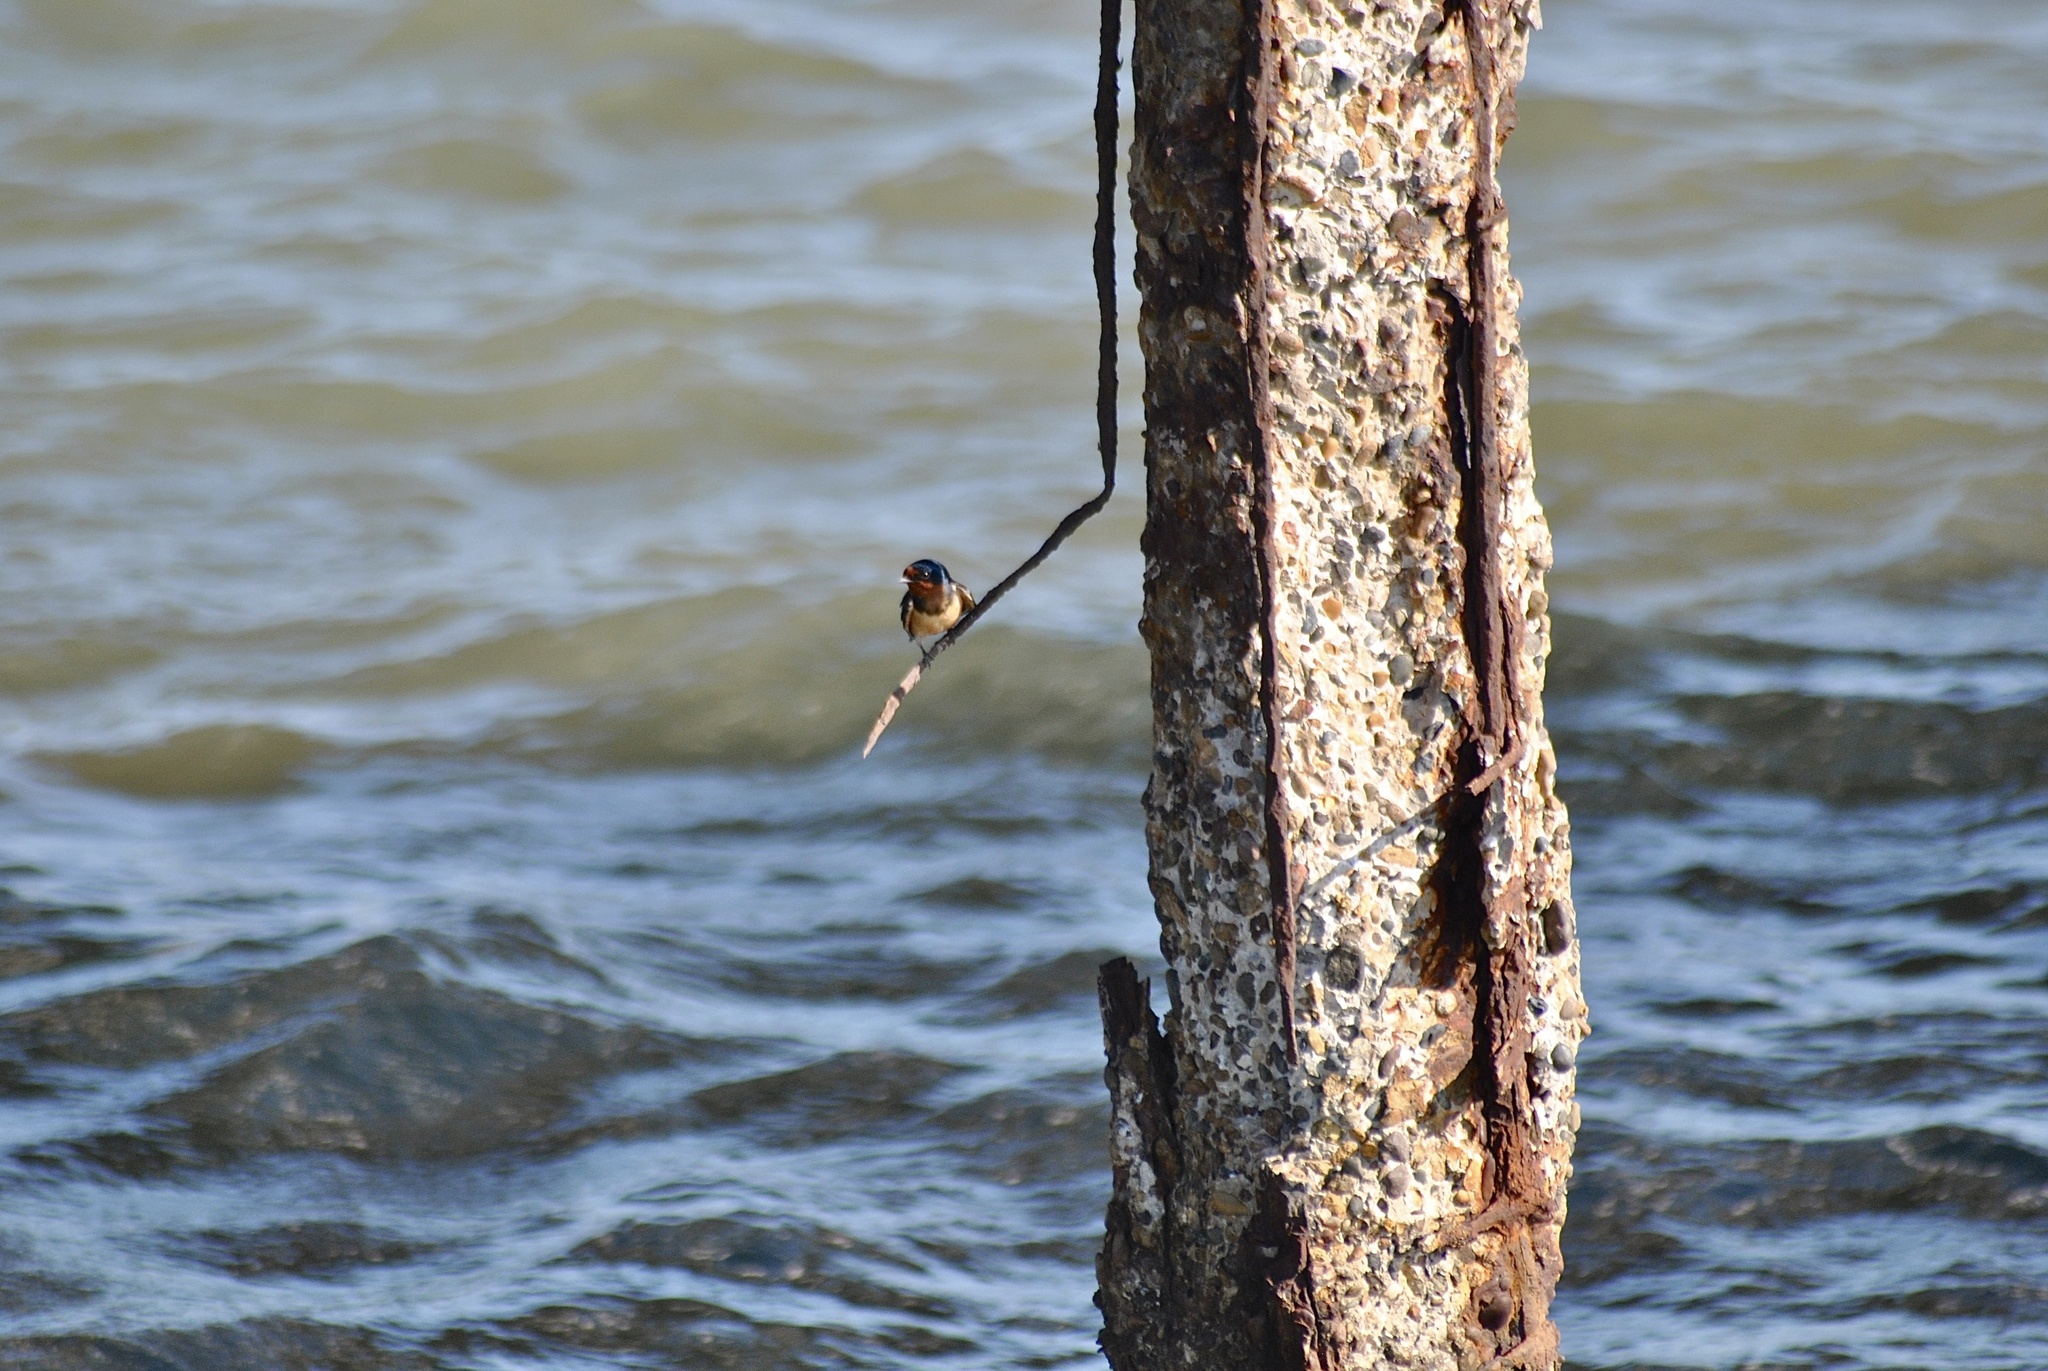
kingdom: Animalia
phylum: Chordata
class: Aves
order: Passeriformes
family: Hirundinidae
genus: Hirundo
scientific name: Hirundo rustica
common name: Barn swallow
